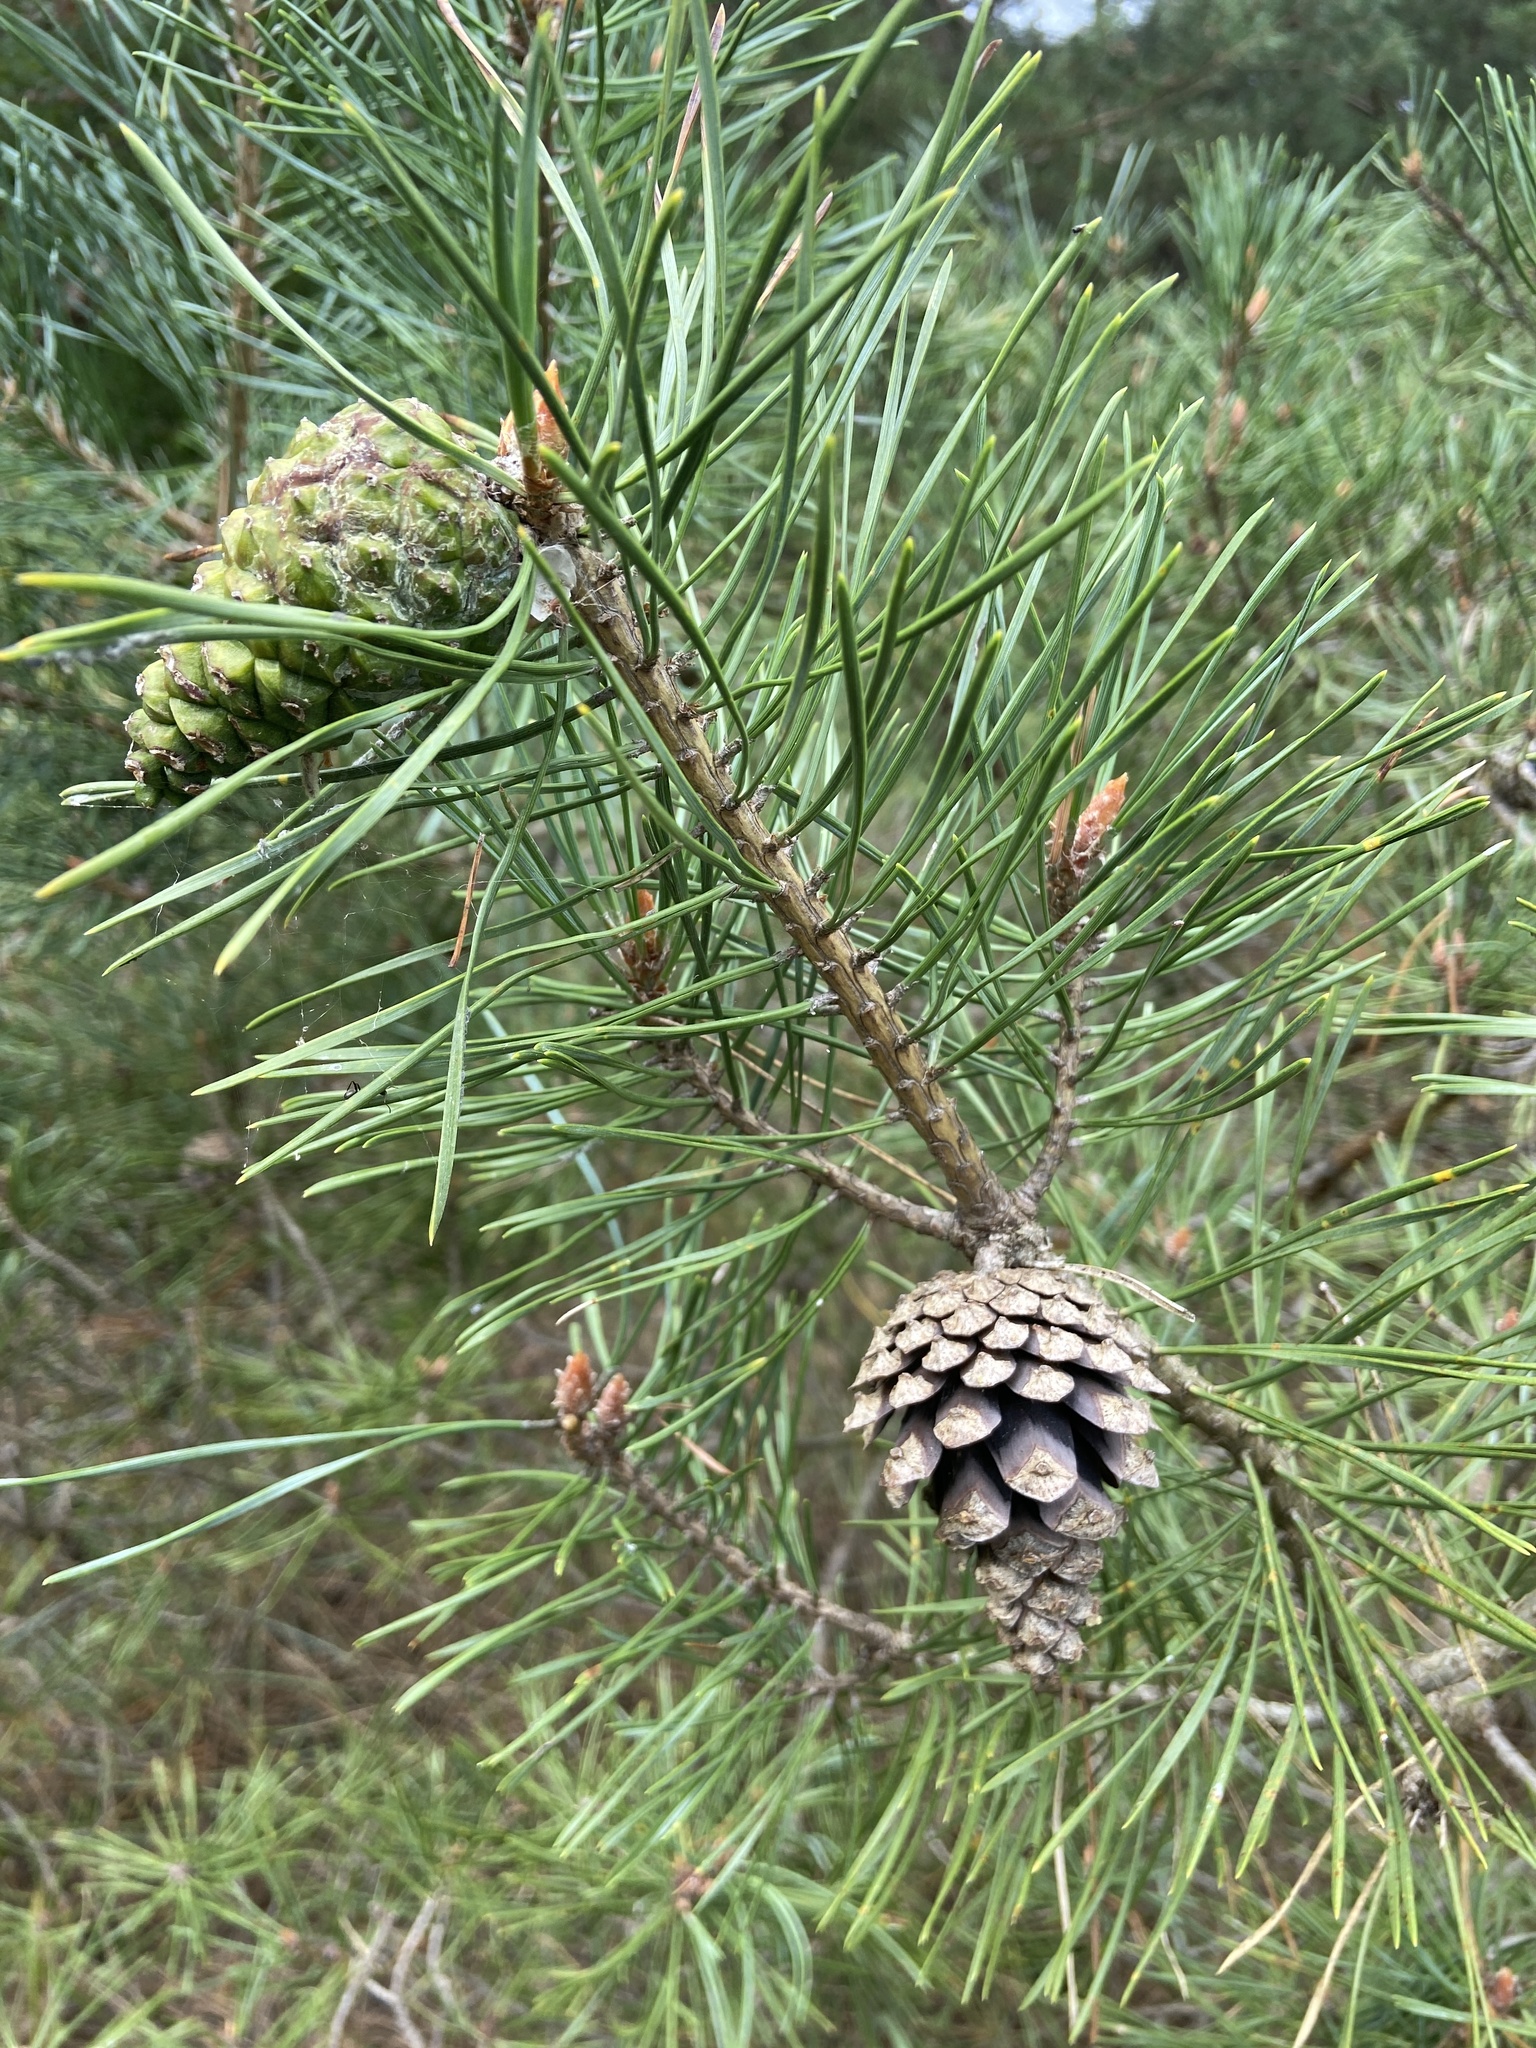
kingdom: Plantae
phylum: Tracheophyta
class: Pinopsida
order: Pinales
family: Pinaceae
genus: Pinus
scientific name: Pinus sylvestris
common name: Scots pine
